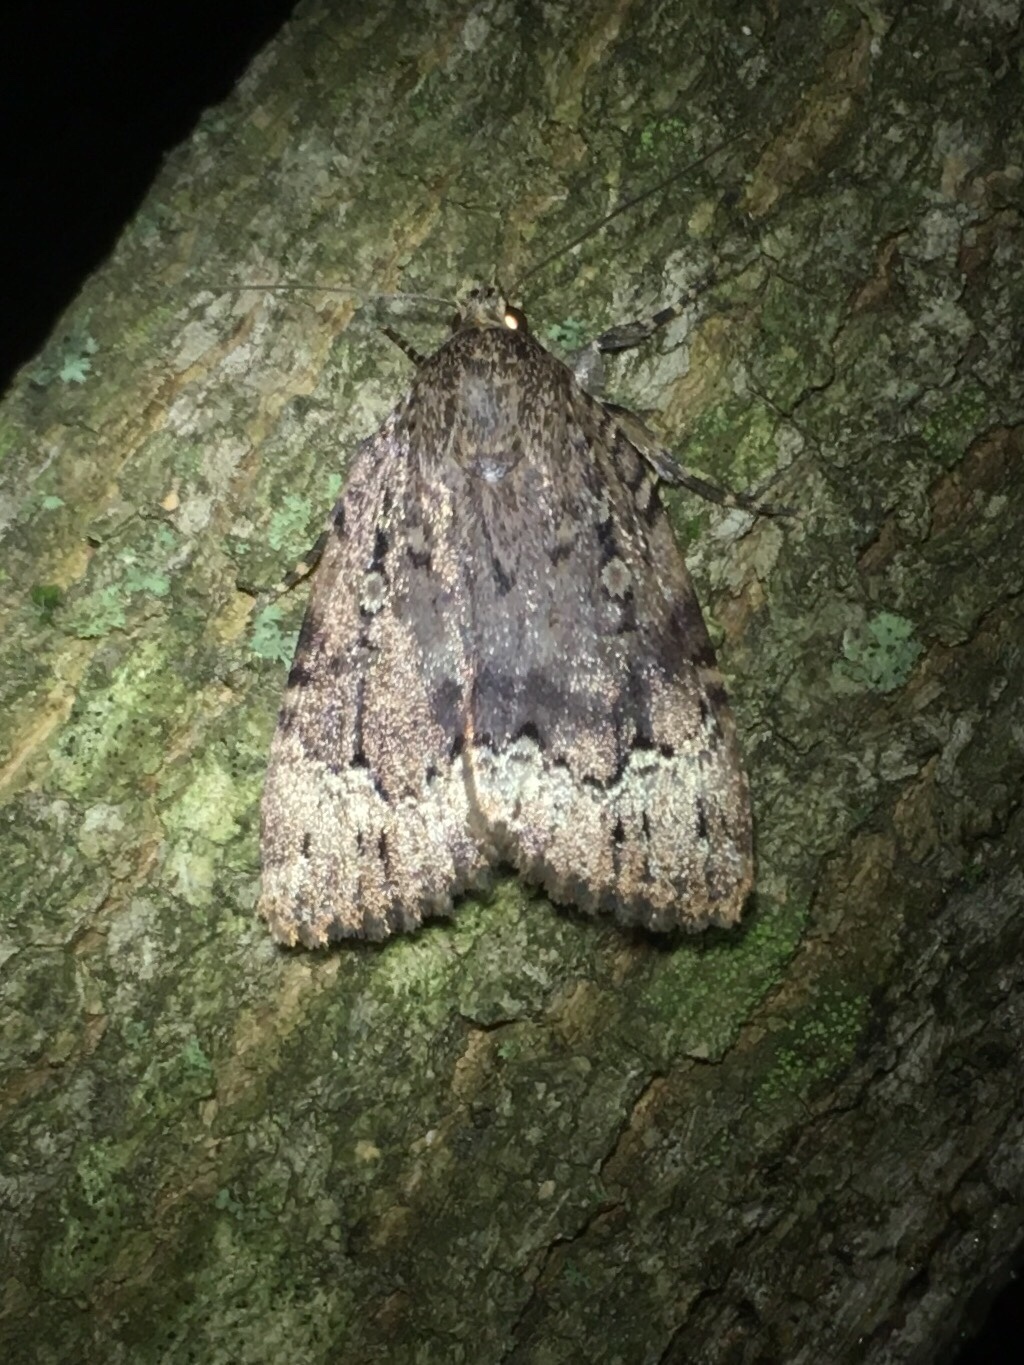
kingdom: Animalia
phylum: Arthropoda
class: Insecta
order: Lepidoptera
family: Noctuidae
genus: Amphipyra
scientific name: Amphipyra pyramidoides
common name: American copper underwing
